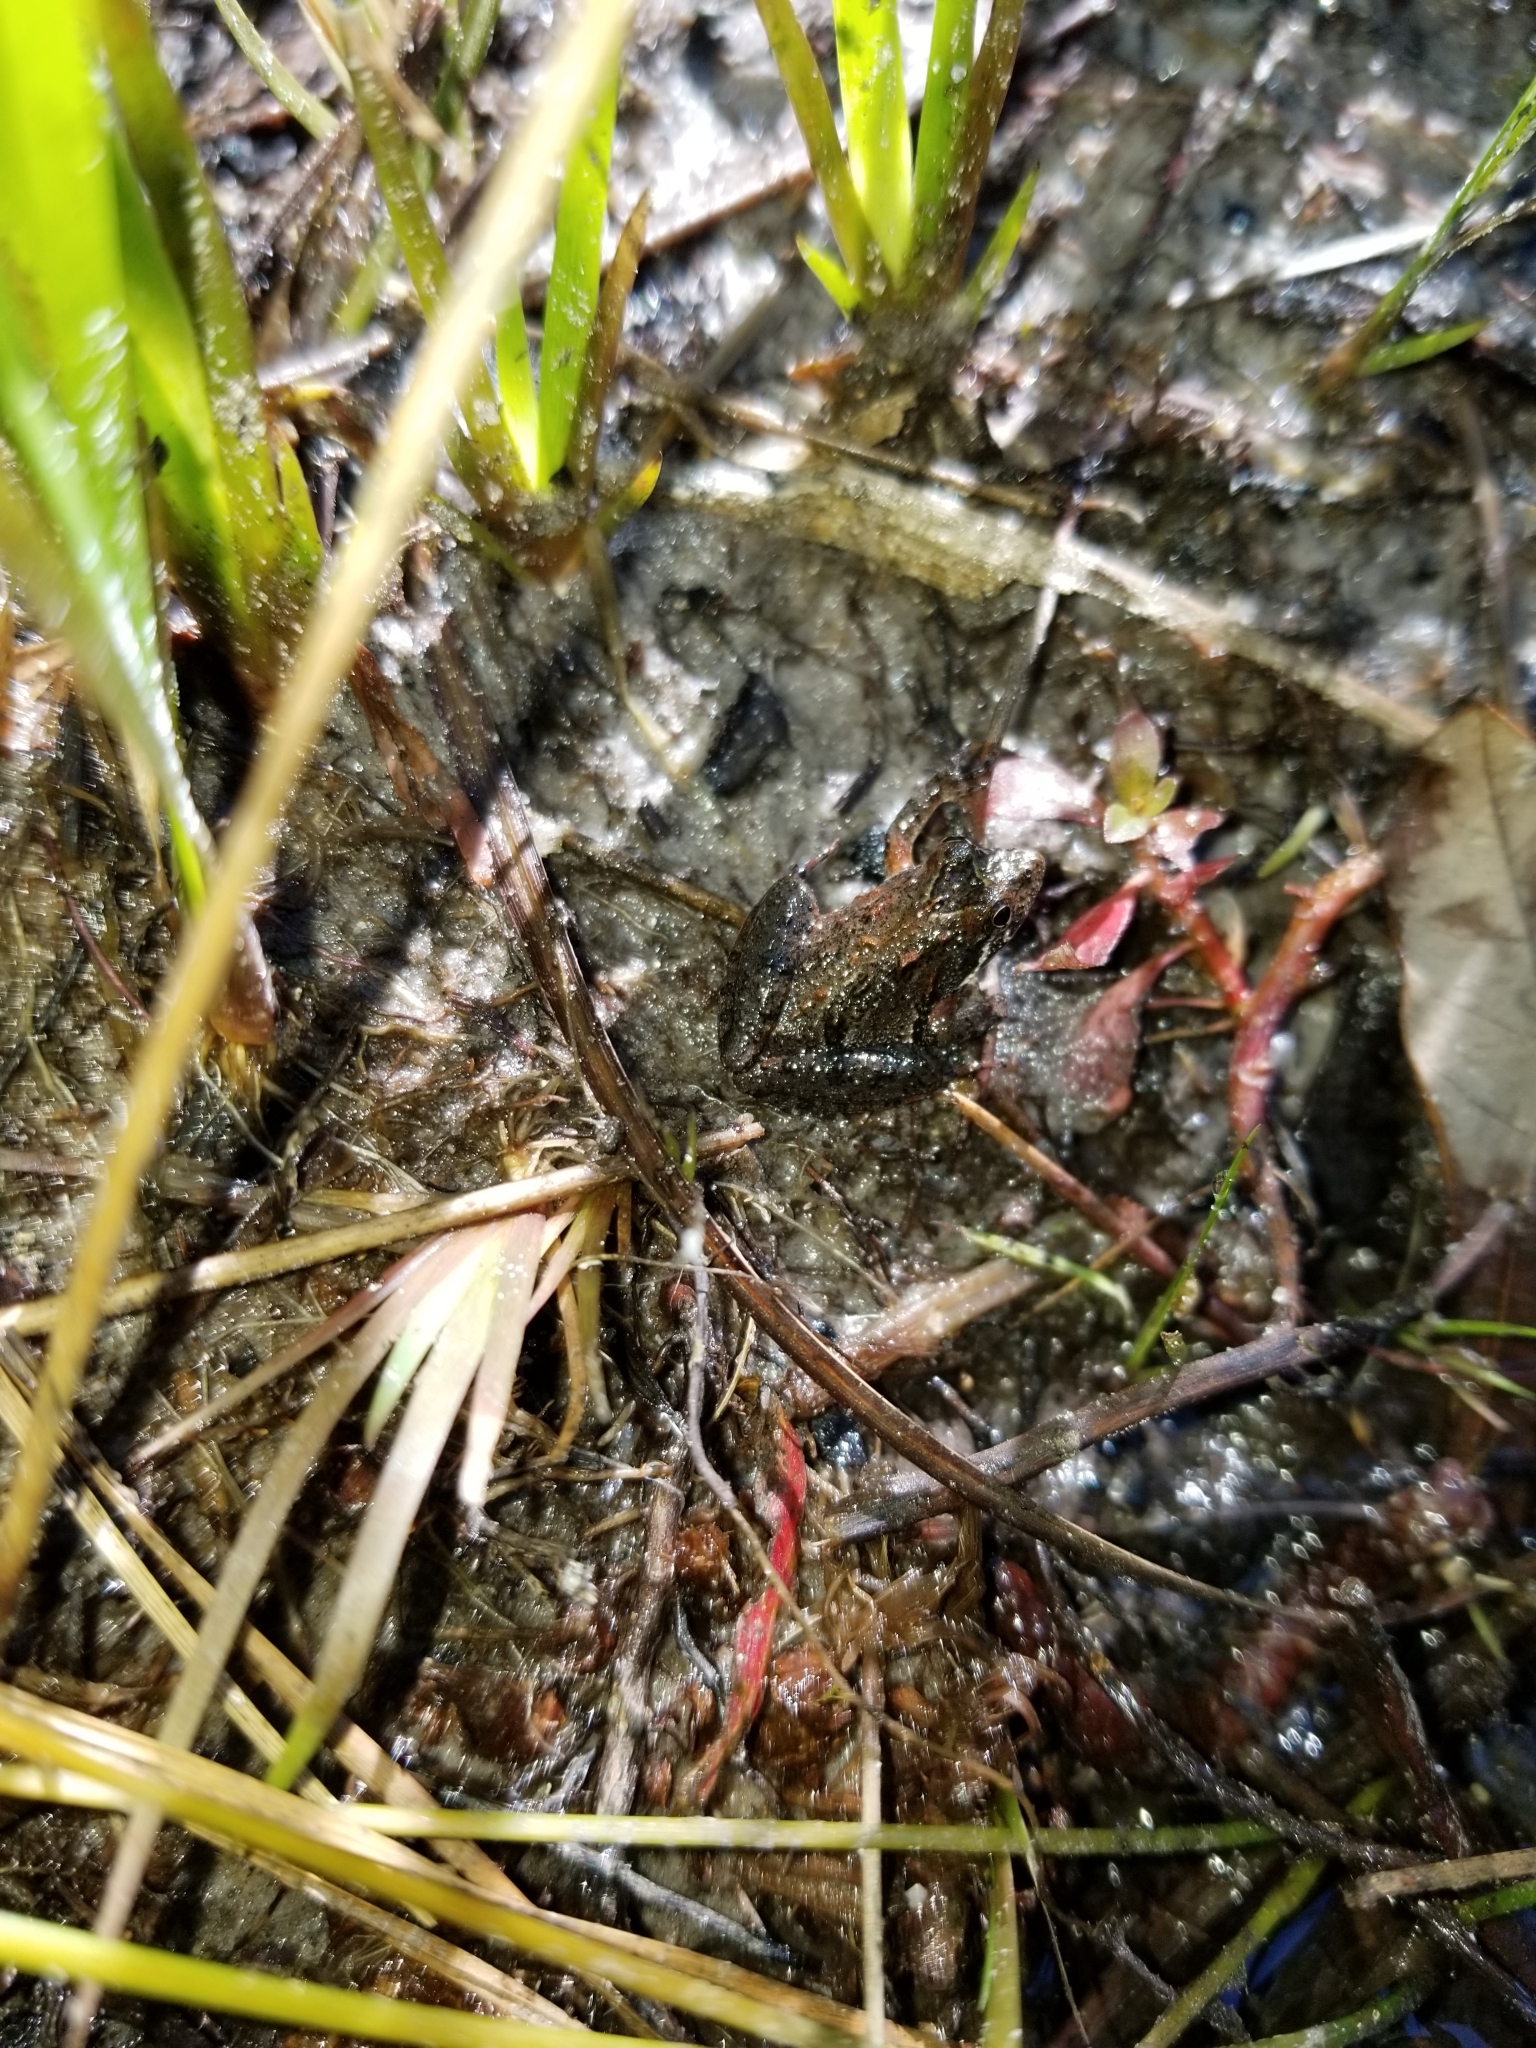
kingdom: Animalia
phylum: Chordata
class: Amphibia
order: Anura
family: Hylidae
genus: Acris
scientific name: Acris gryllus
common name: Southern cricket frog
